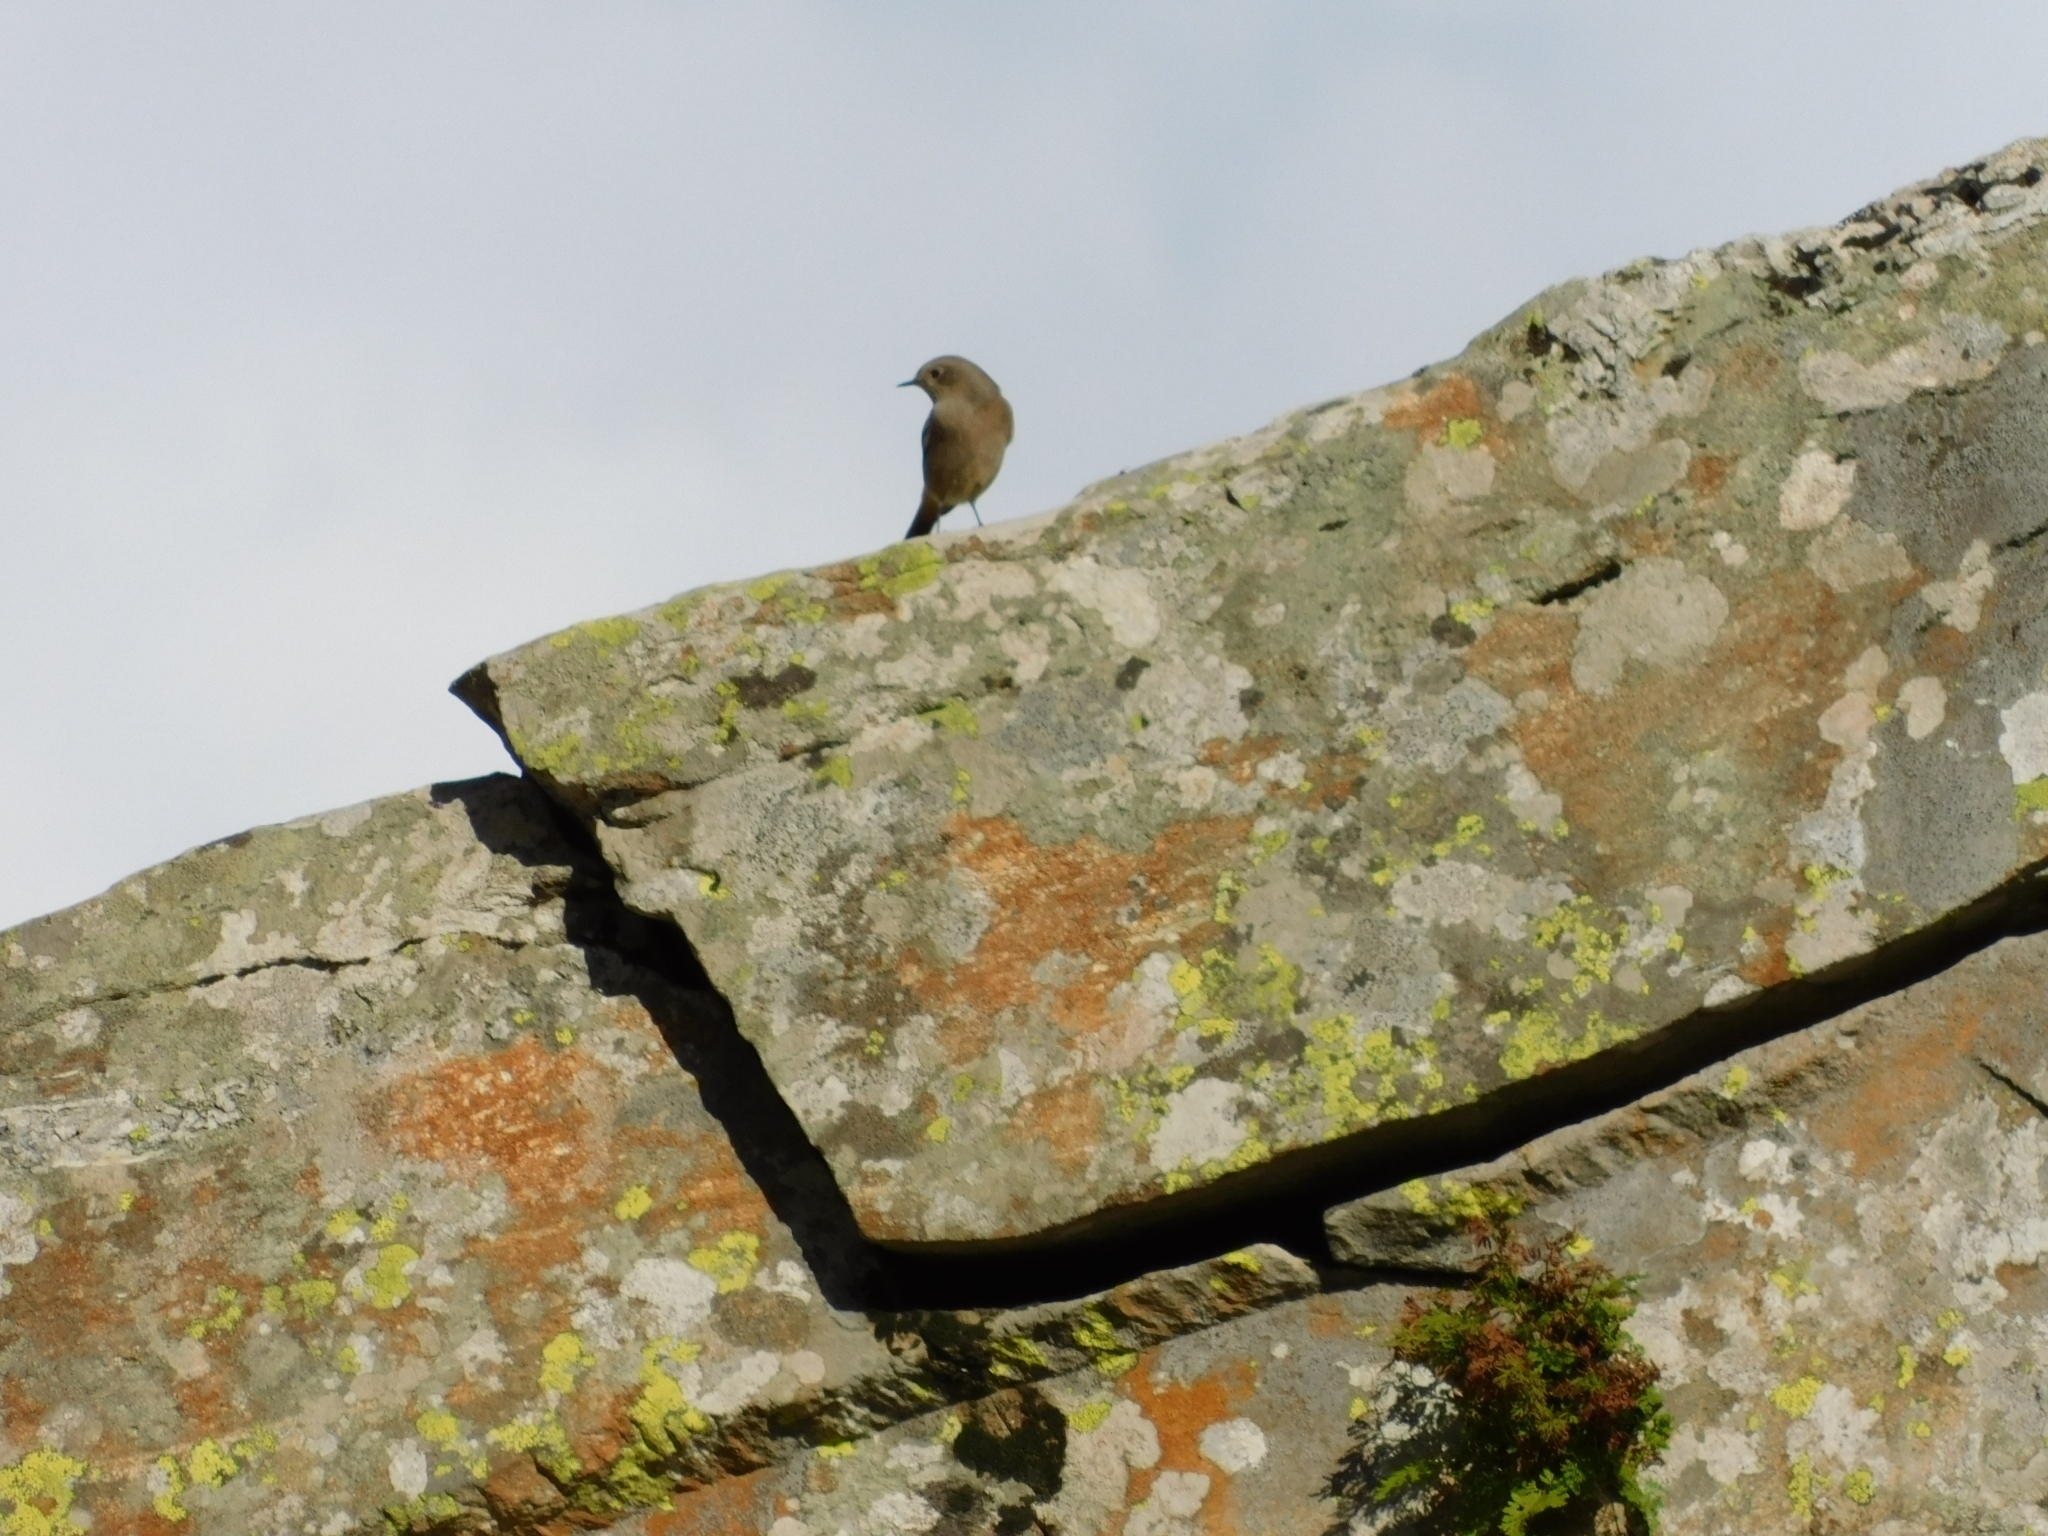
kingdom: Animalia
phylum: Chordata
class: Aves
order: Passeriformes
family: Muscicapidae
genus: Phoenicurus
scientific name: Phoenicurus ochruros
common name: Black redstart
